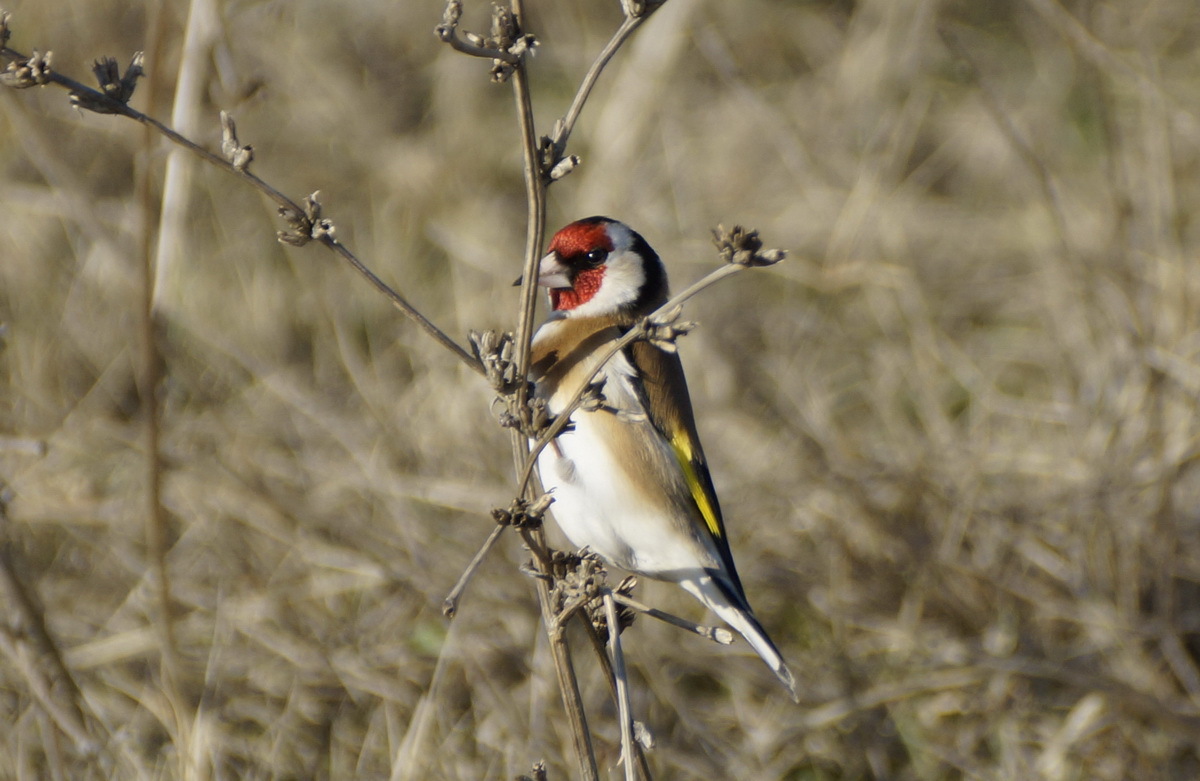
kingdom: Animalia
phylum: Chordata
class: Aves
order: Passeriformes
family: Fringillidae
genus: Carduelis
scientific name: Carduelis carduelis
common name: European goldfinch
